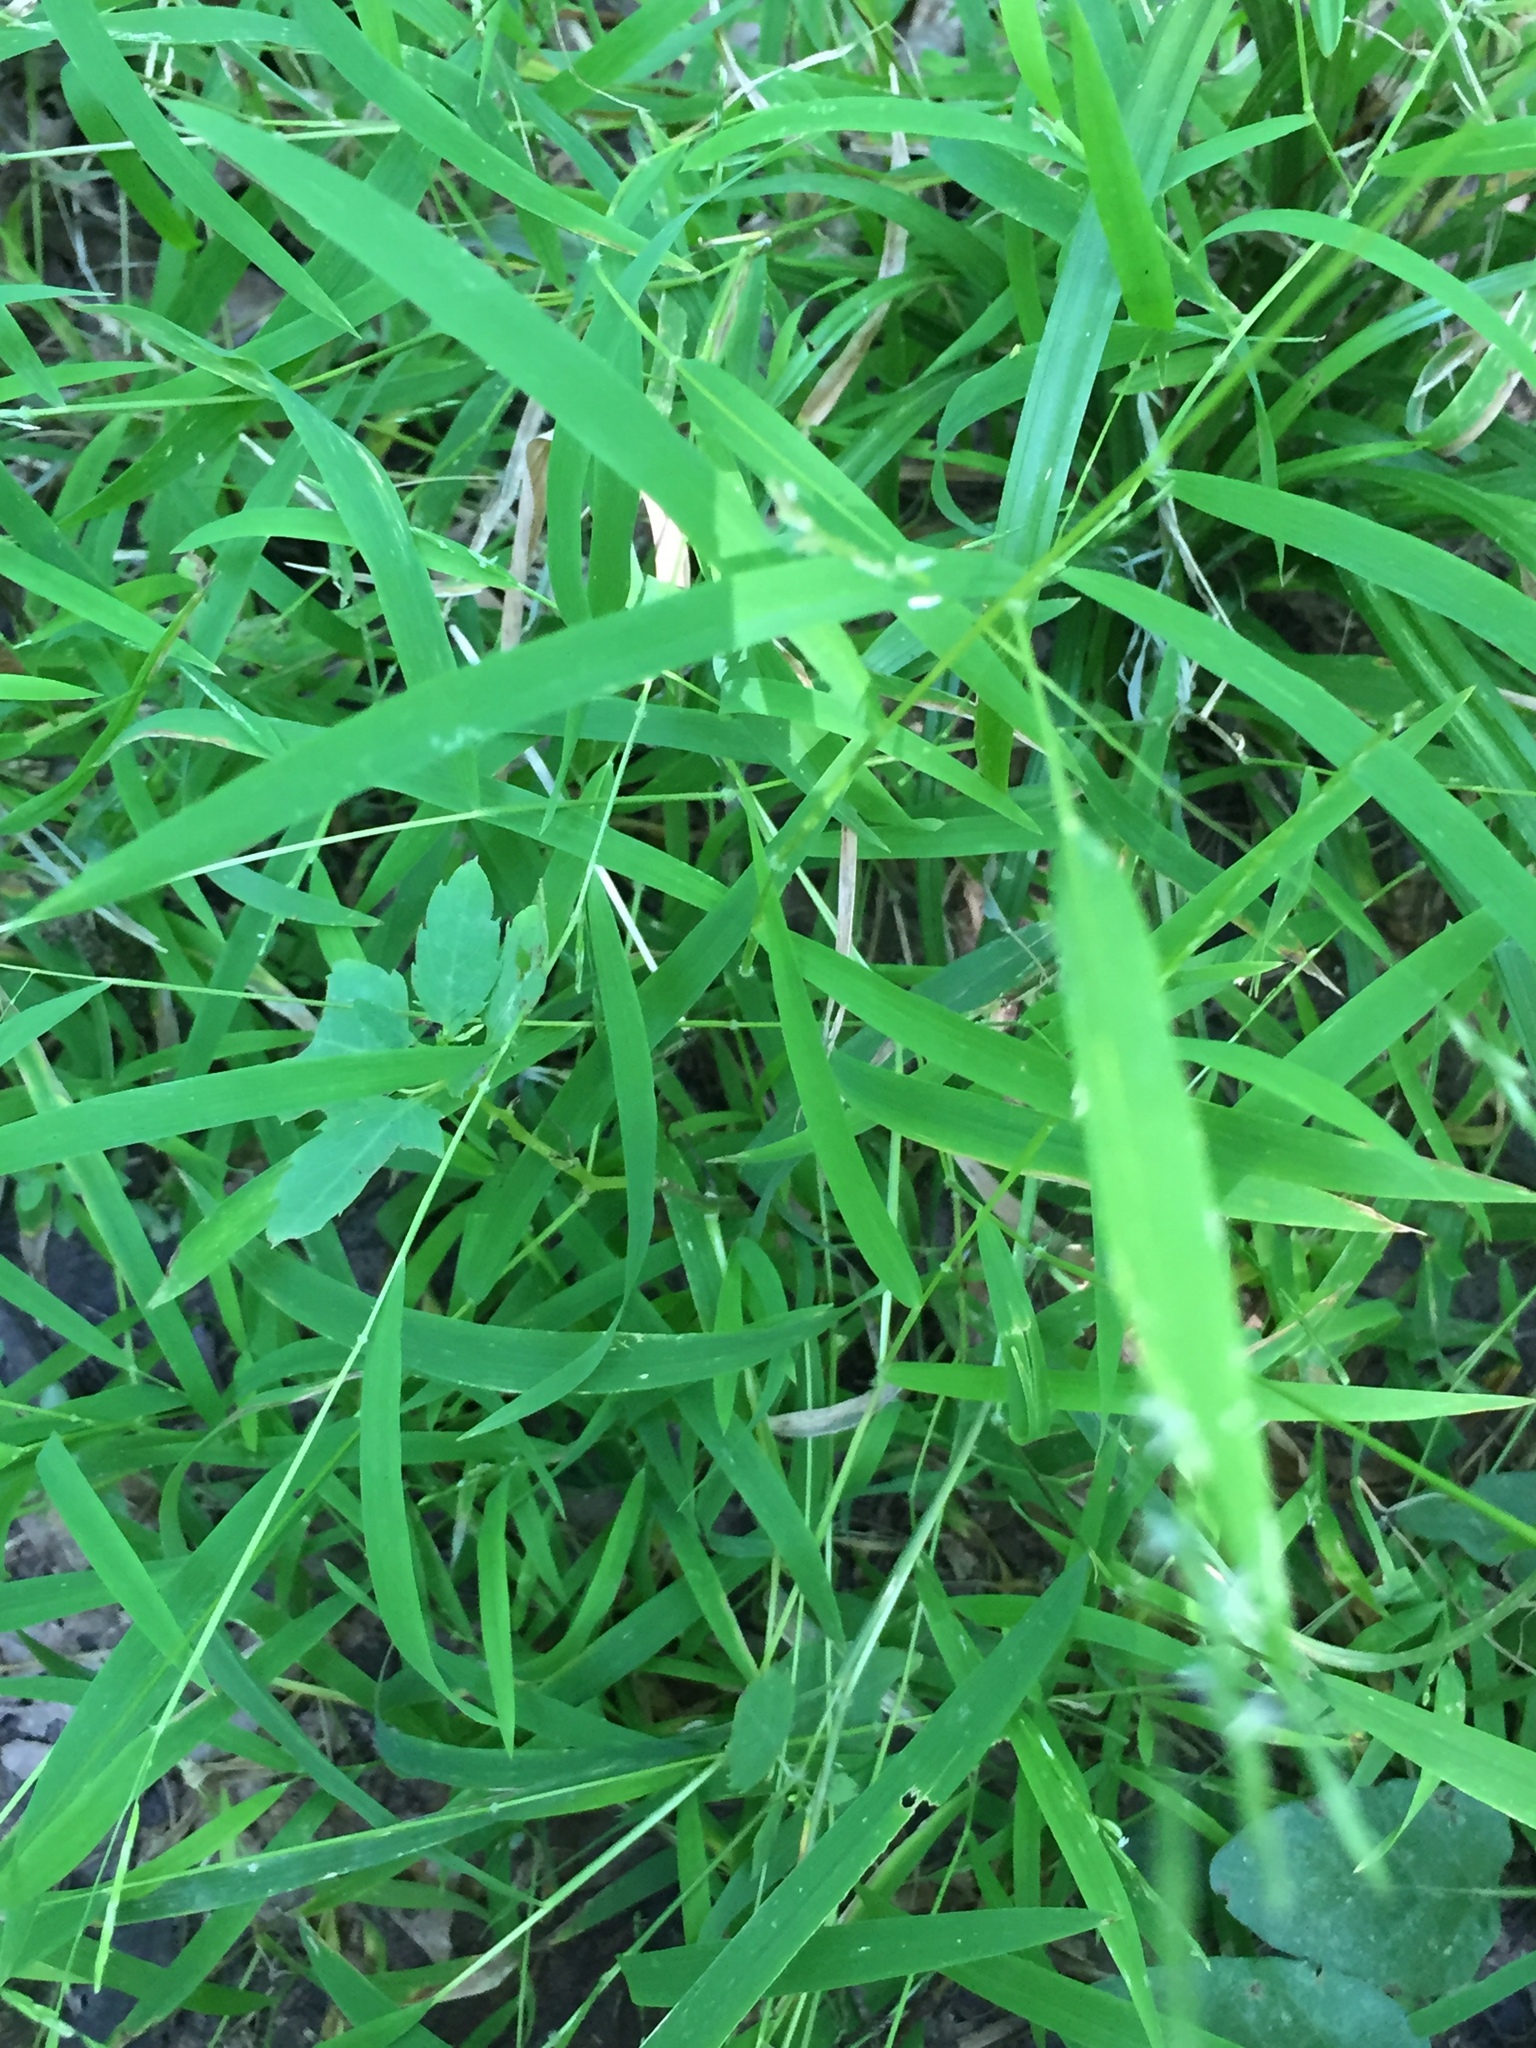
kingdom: Plantae
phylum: Tracheophyta
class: Liliopsida
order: Poales
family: Poaceae
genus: Leersia
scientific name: Leersia virginica
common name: White cutgrass
